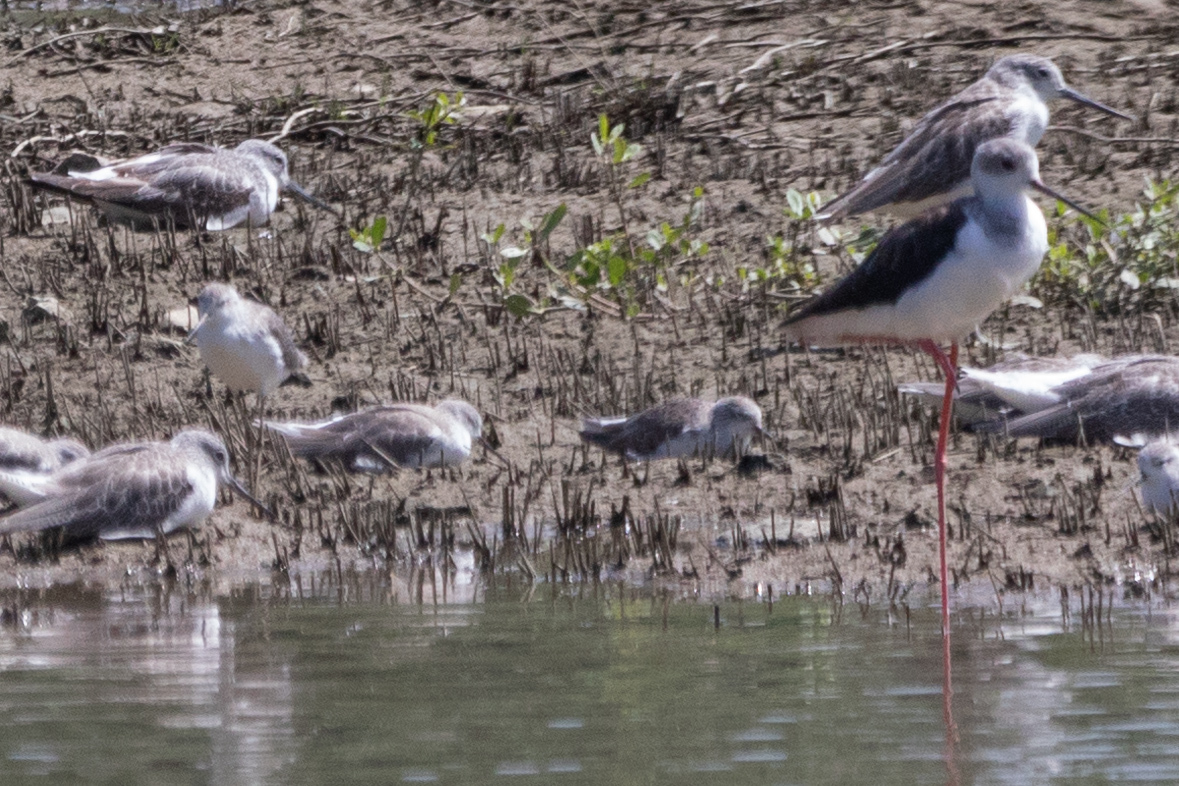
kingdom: Animalia
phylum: Chordata
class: Aves
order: Charadriiformes
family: Scolopacidae
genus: Tringa
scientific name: Tringa nebularia
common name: Common greenshank
